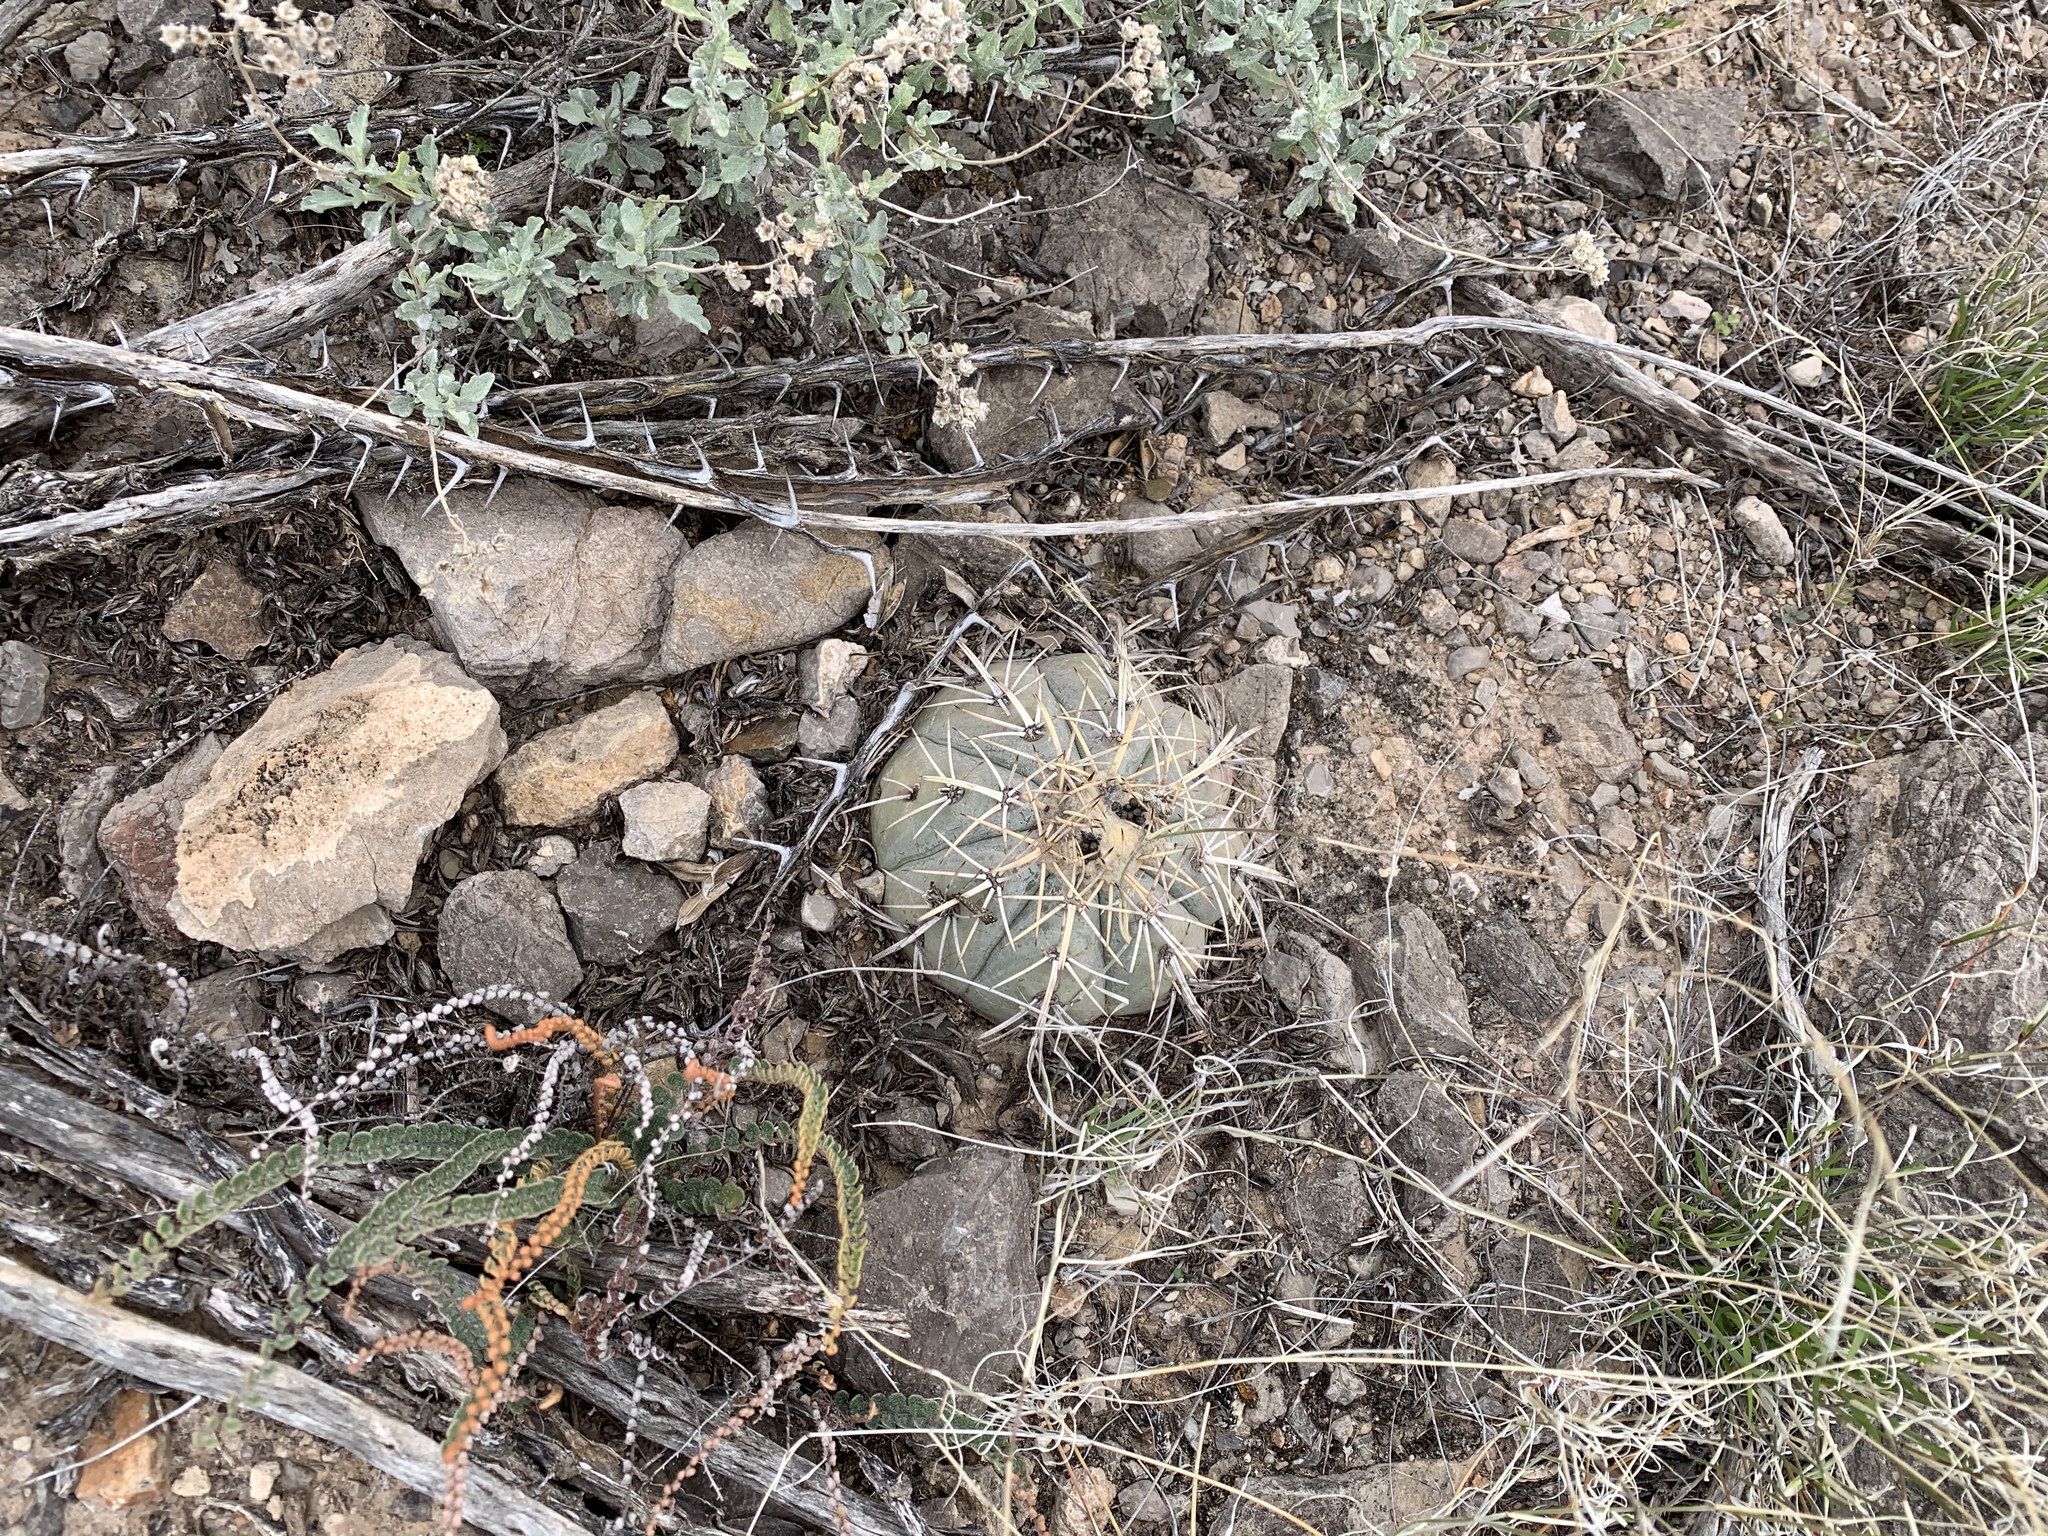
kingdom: Plantae
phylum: Tracheophyta
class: Magnoliopsida
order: Caryophyllales
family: Cactaceae
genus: Echinocactus
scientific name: Echinocactus horizonthalonius
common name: Devilshead
